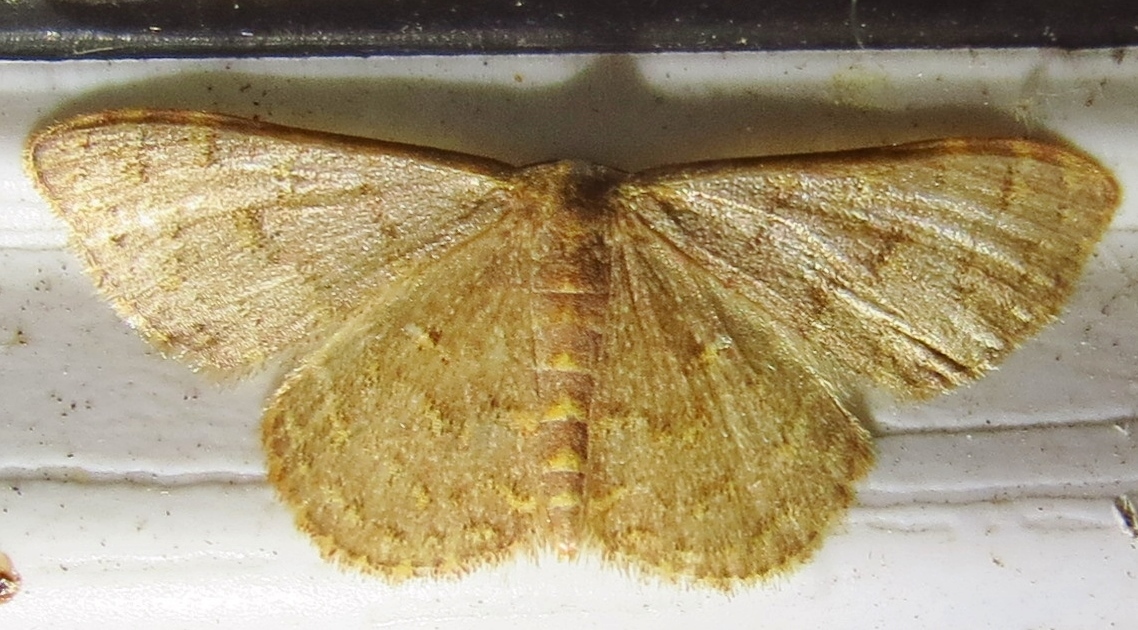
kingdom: Animalia
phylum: Arthropoda
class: Insecta
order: Lepidoptera
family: Geometridae
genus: Leptostales
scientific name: Leptostales pannaria
